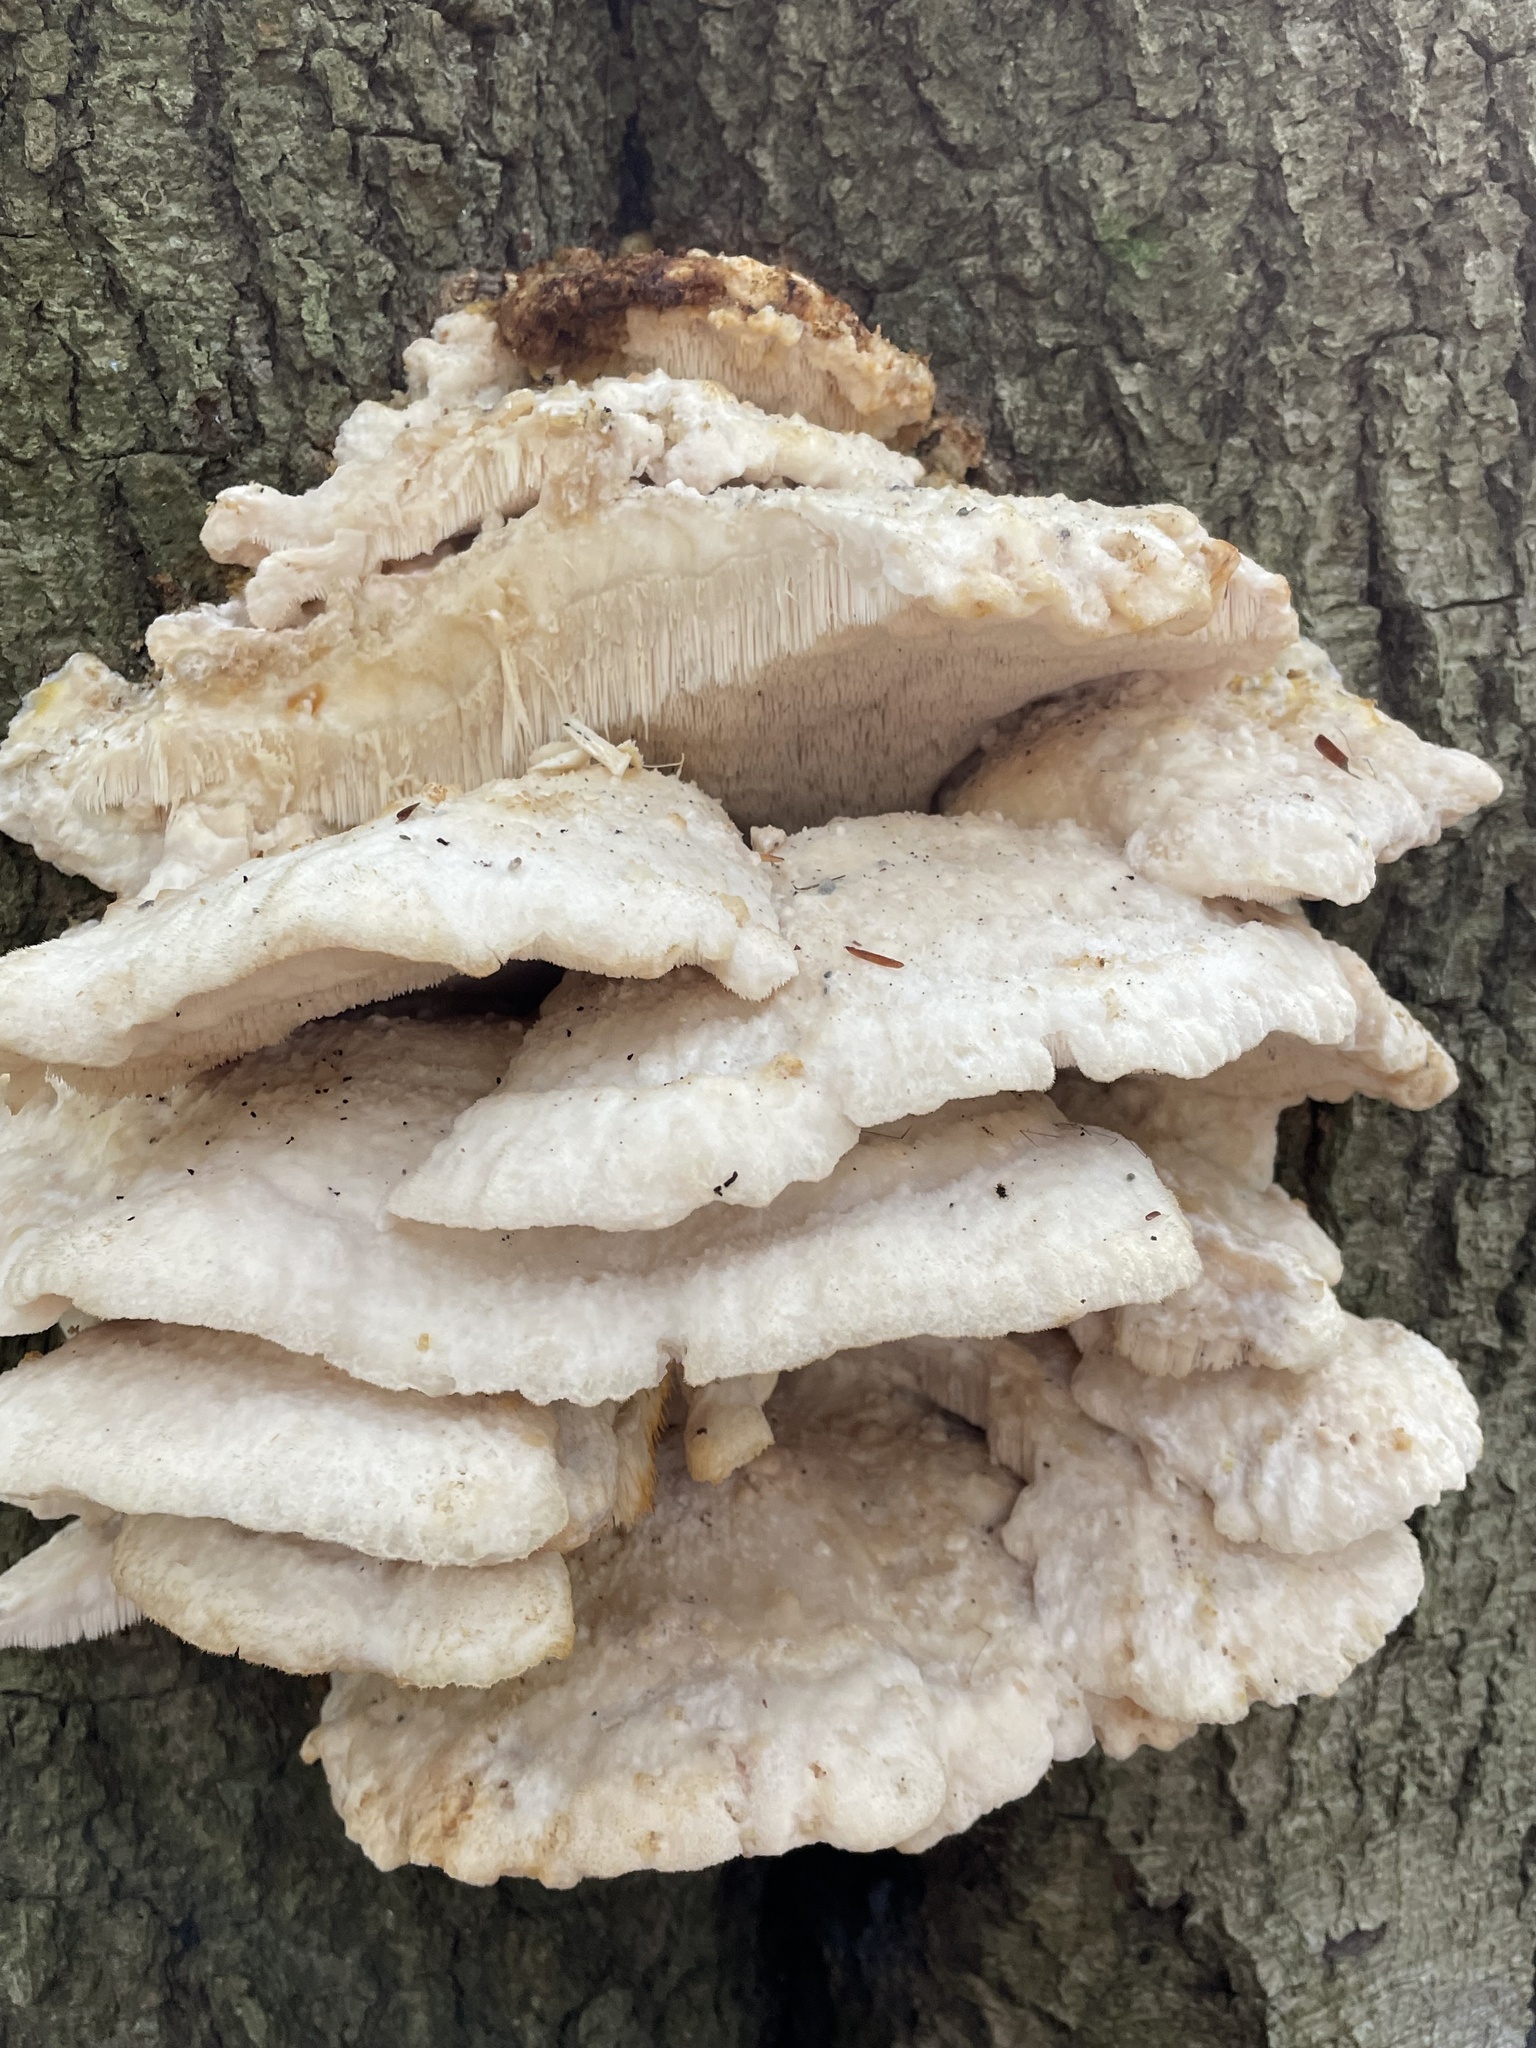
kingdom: Fungi
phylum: Basidiomycota
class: Agaricomycetes
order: Polyporales
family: Meruliaceae
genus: Climacodon
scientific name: Climacodon septentrionalis
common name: Northern tooth
